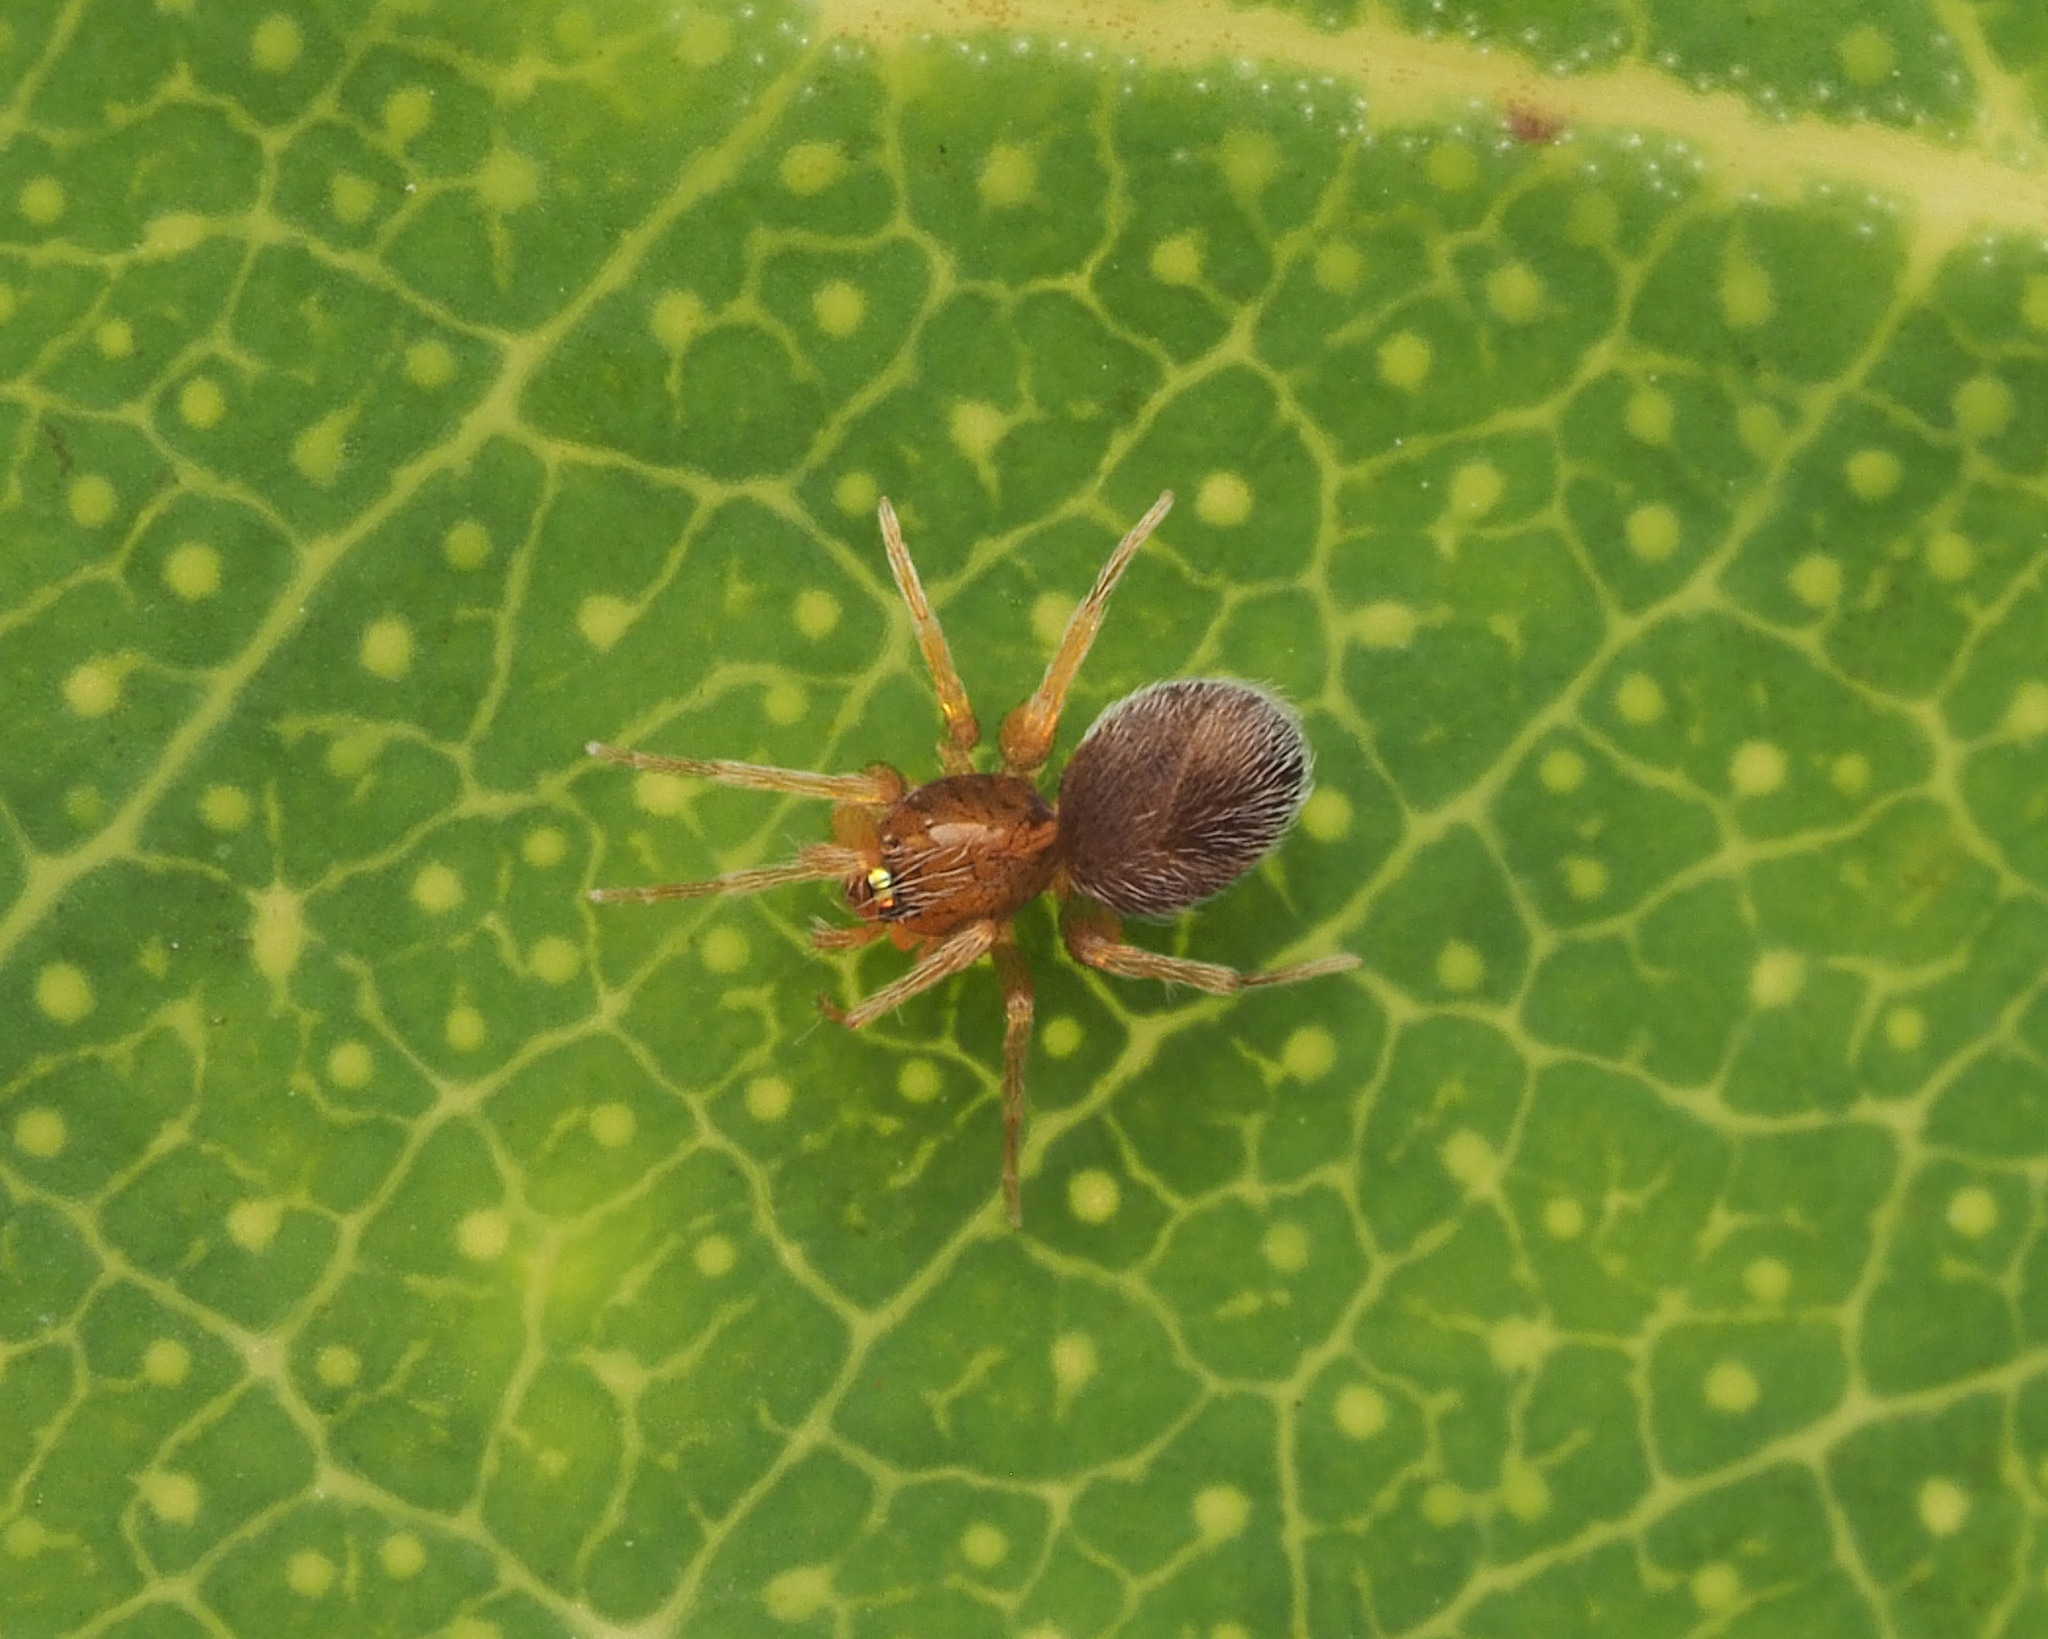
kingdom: Animalia
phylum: Arthropoda
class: Arachnida
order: Araneae
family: Oonopidae
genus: Orchestina
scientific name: Orchestina
